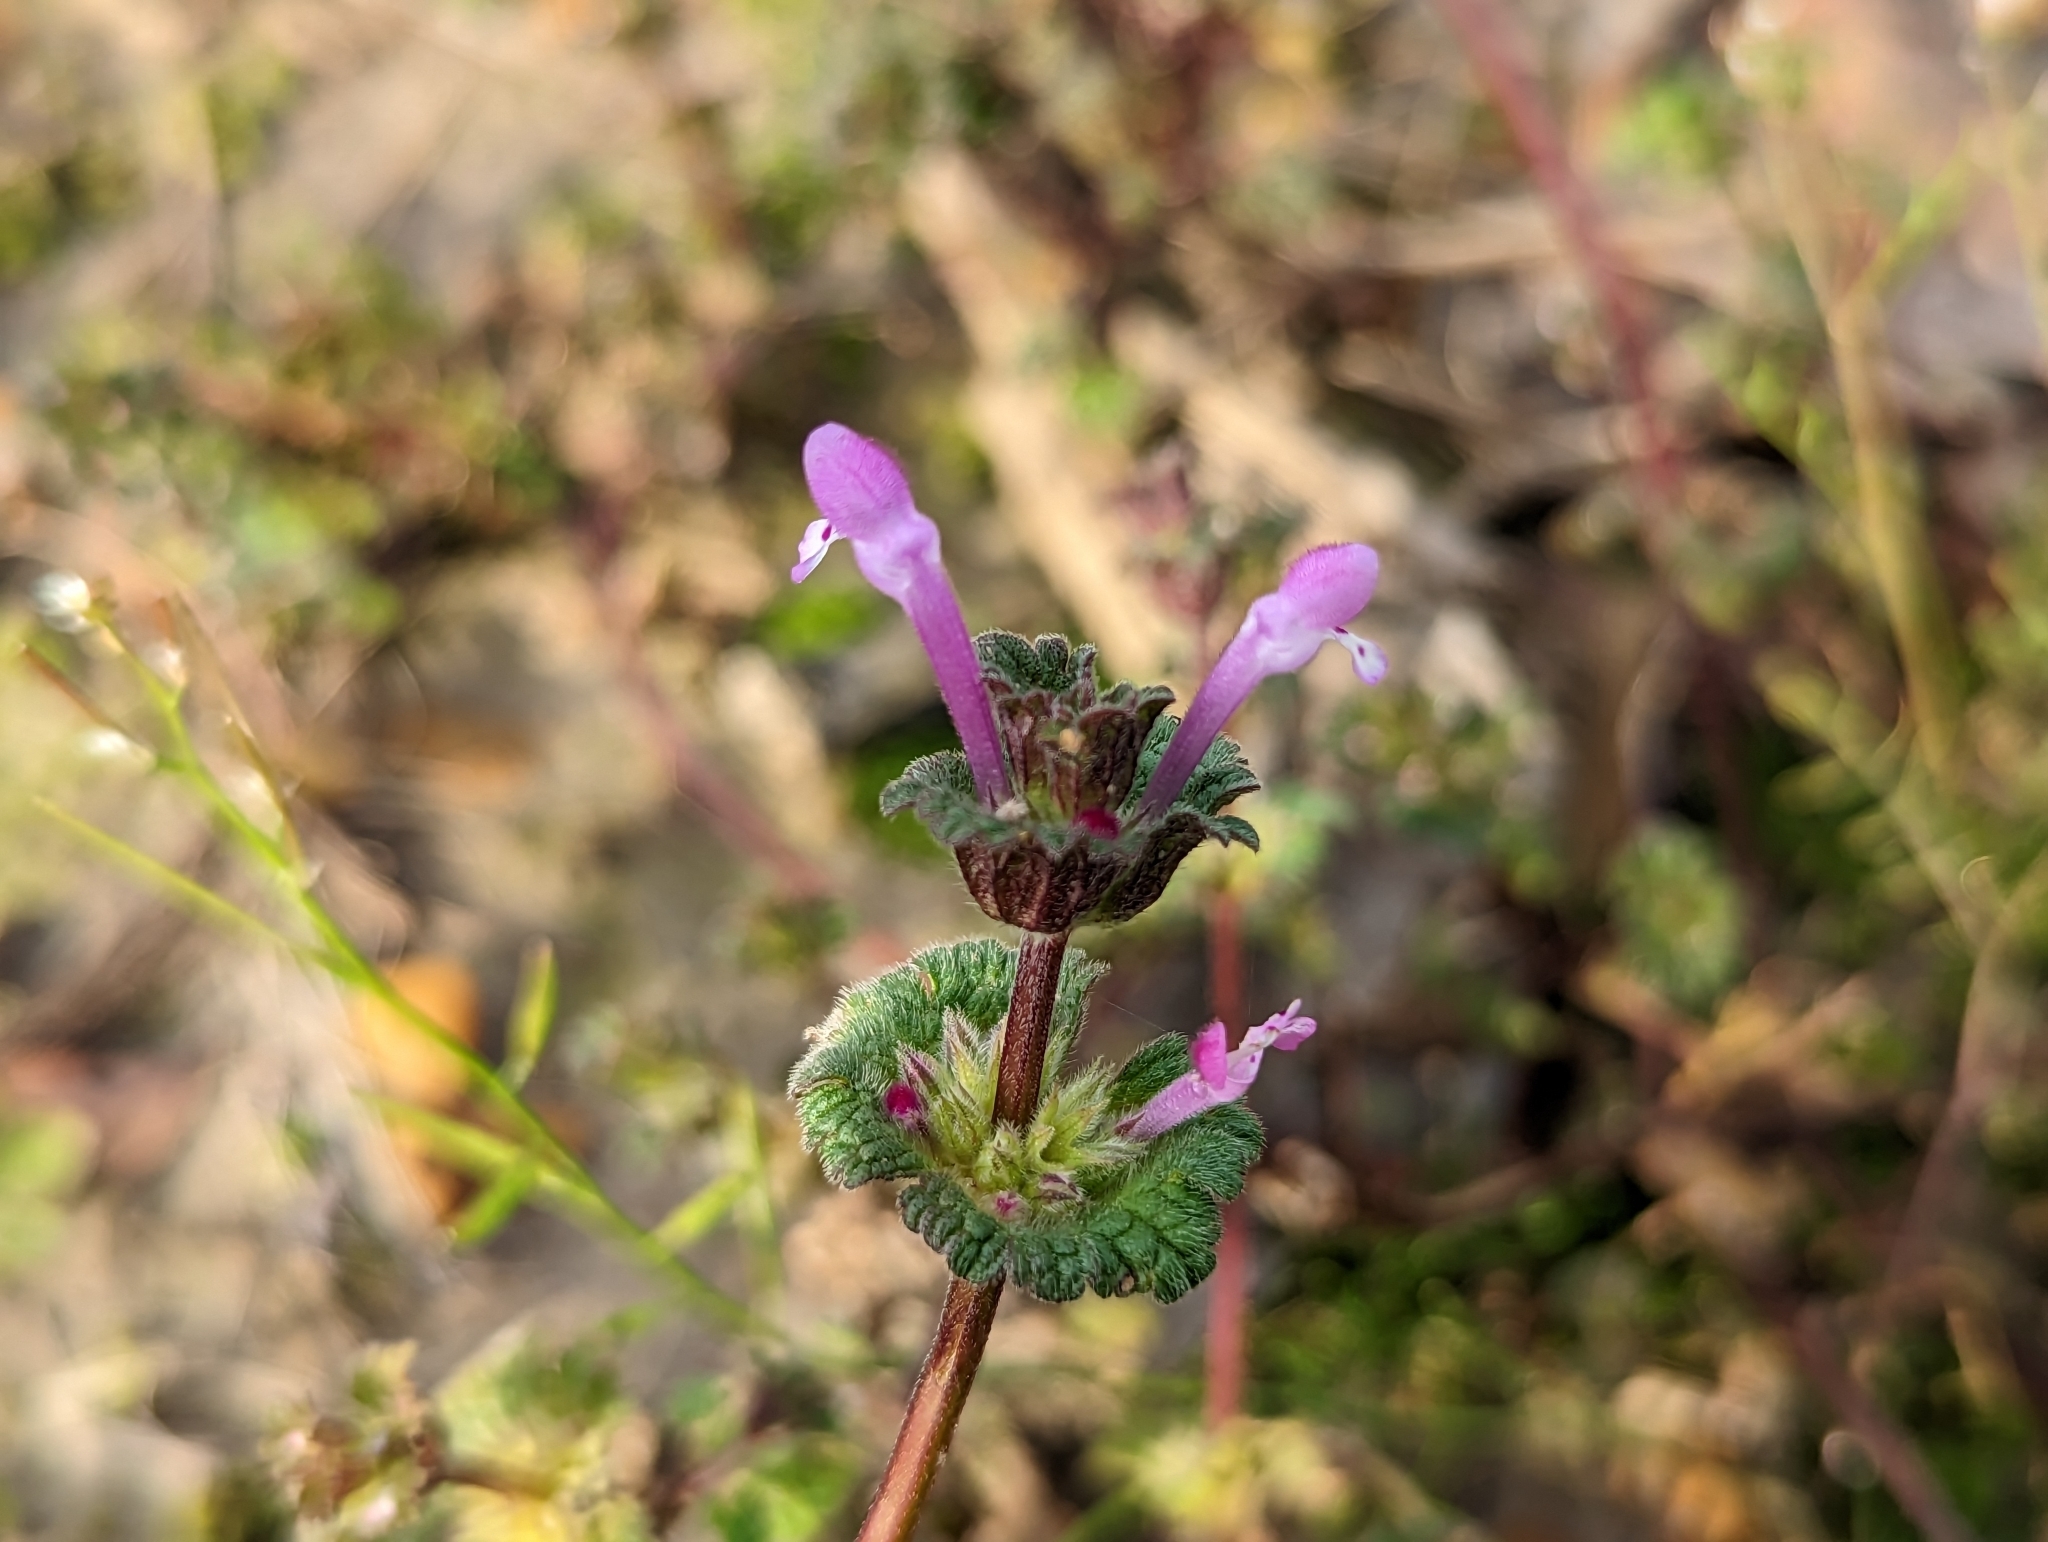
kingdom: Plantae
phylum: Tracheophyta
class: Magnoliopsida
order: Lamiales
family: Lamiaceae
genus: Lamium
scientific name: Lamium amplexicaule
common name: Henbit dead-nettle
